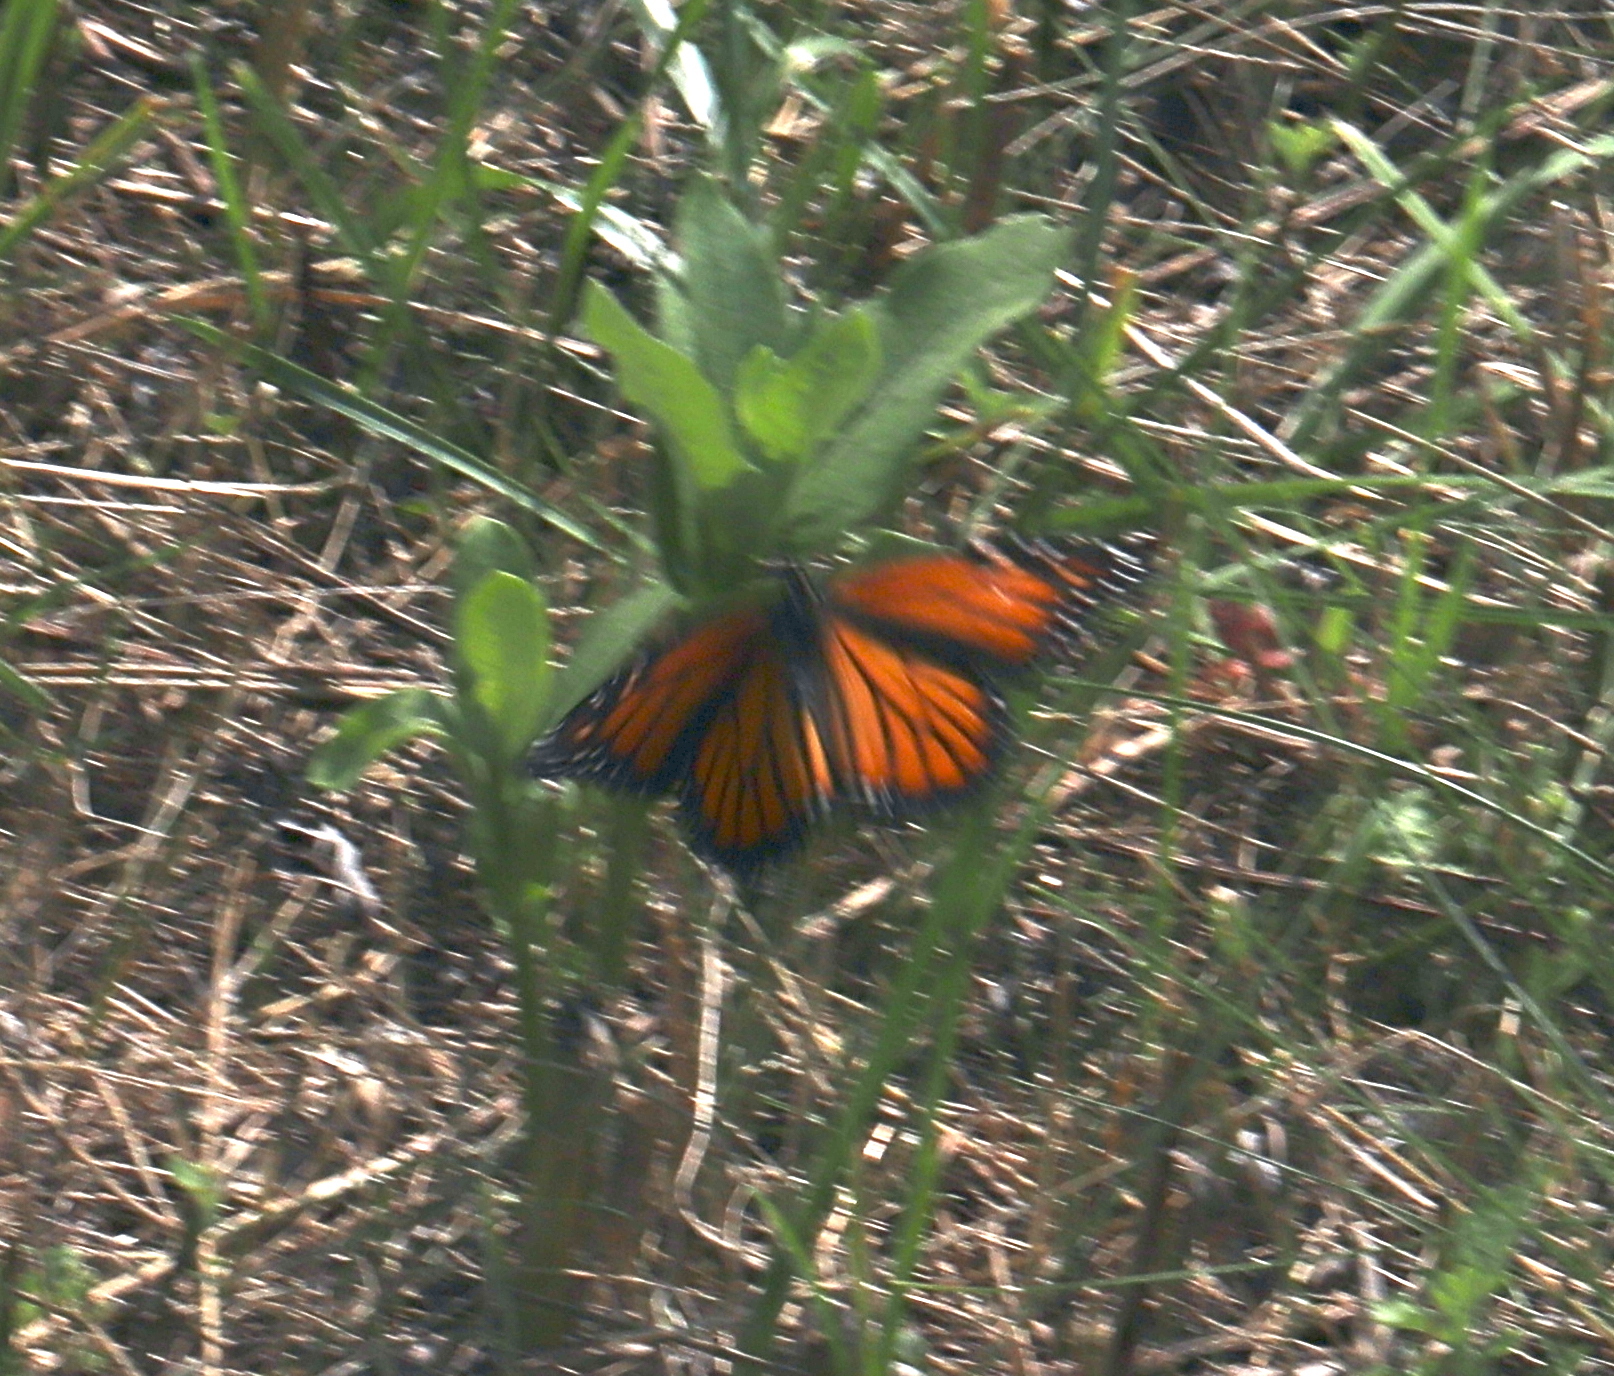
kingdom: Animalia
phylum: Arthropoda
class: Insecta
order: Lepidoptera
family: Nymphalidae
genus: Danaus
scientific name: Danaus plexippus
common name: Monarch
